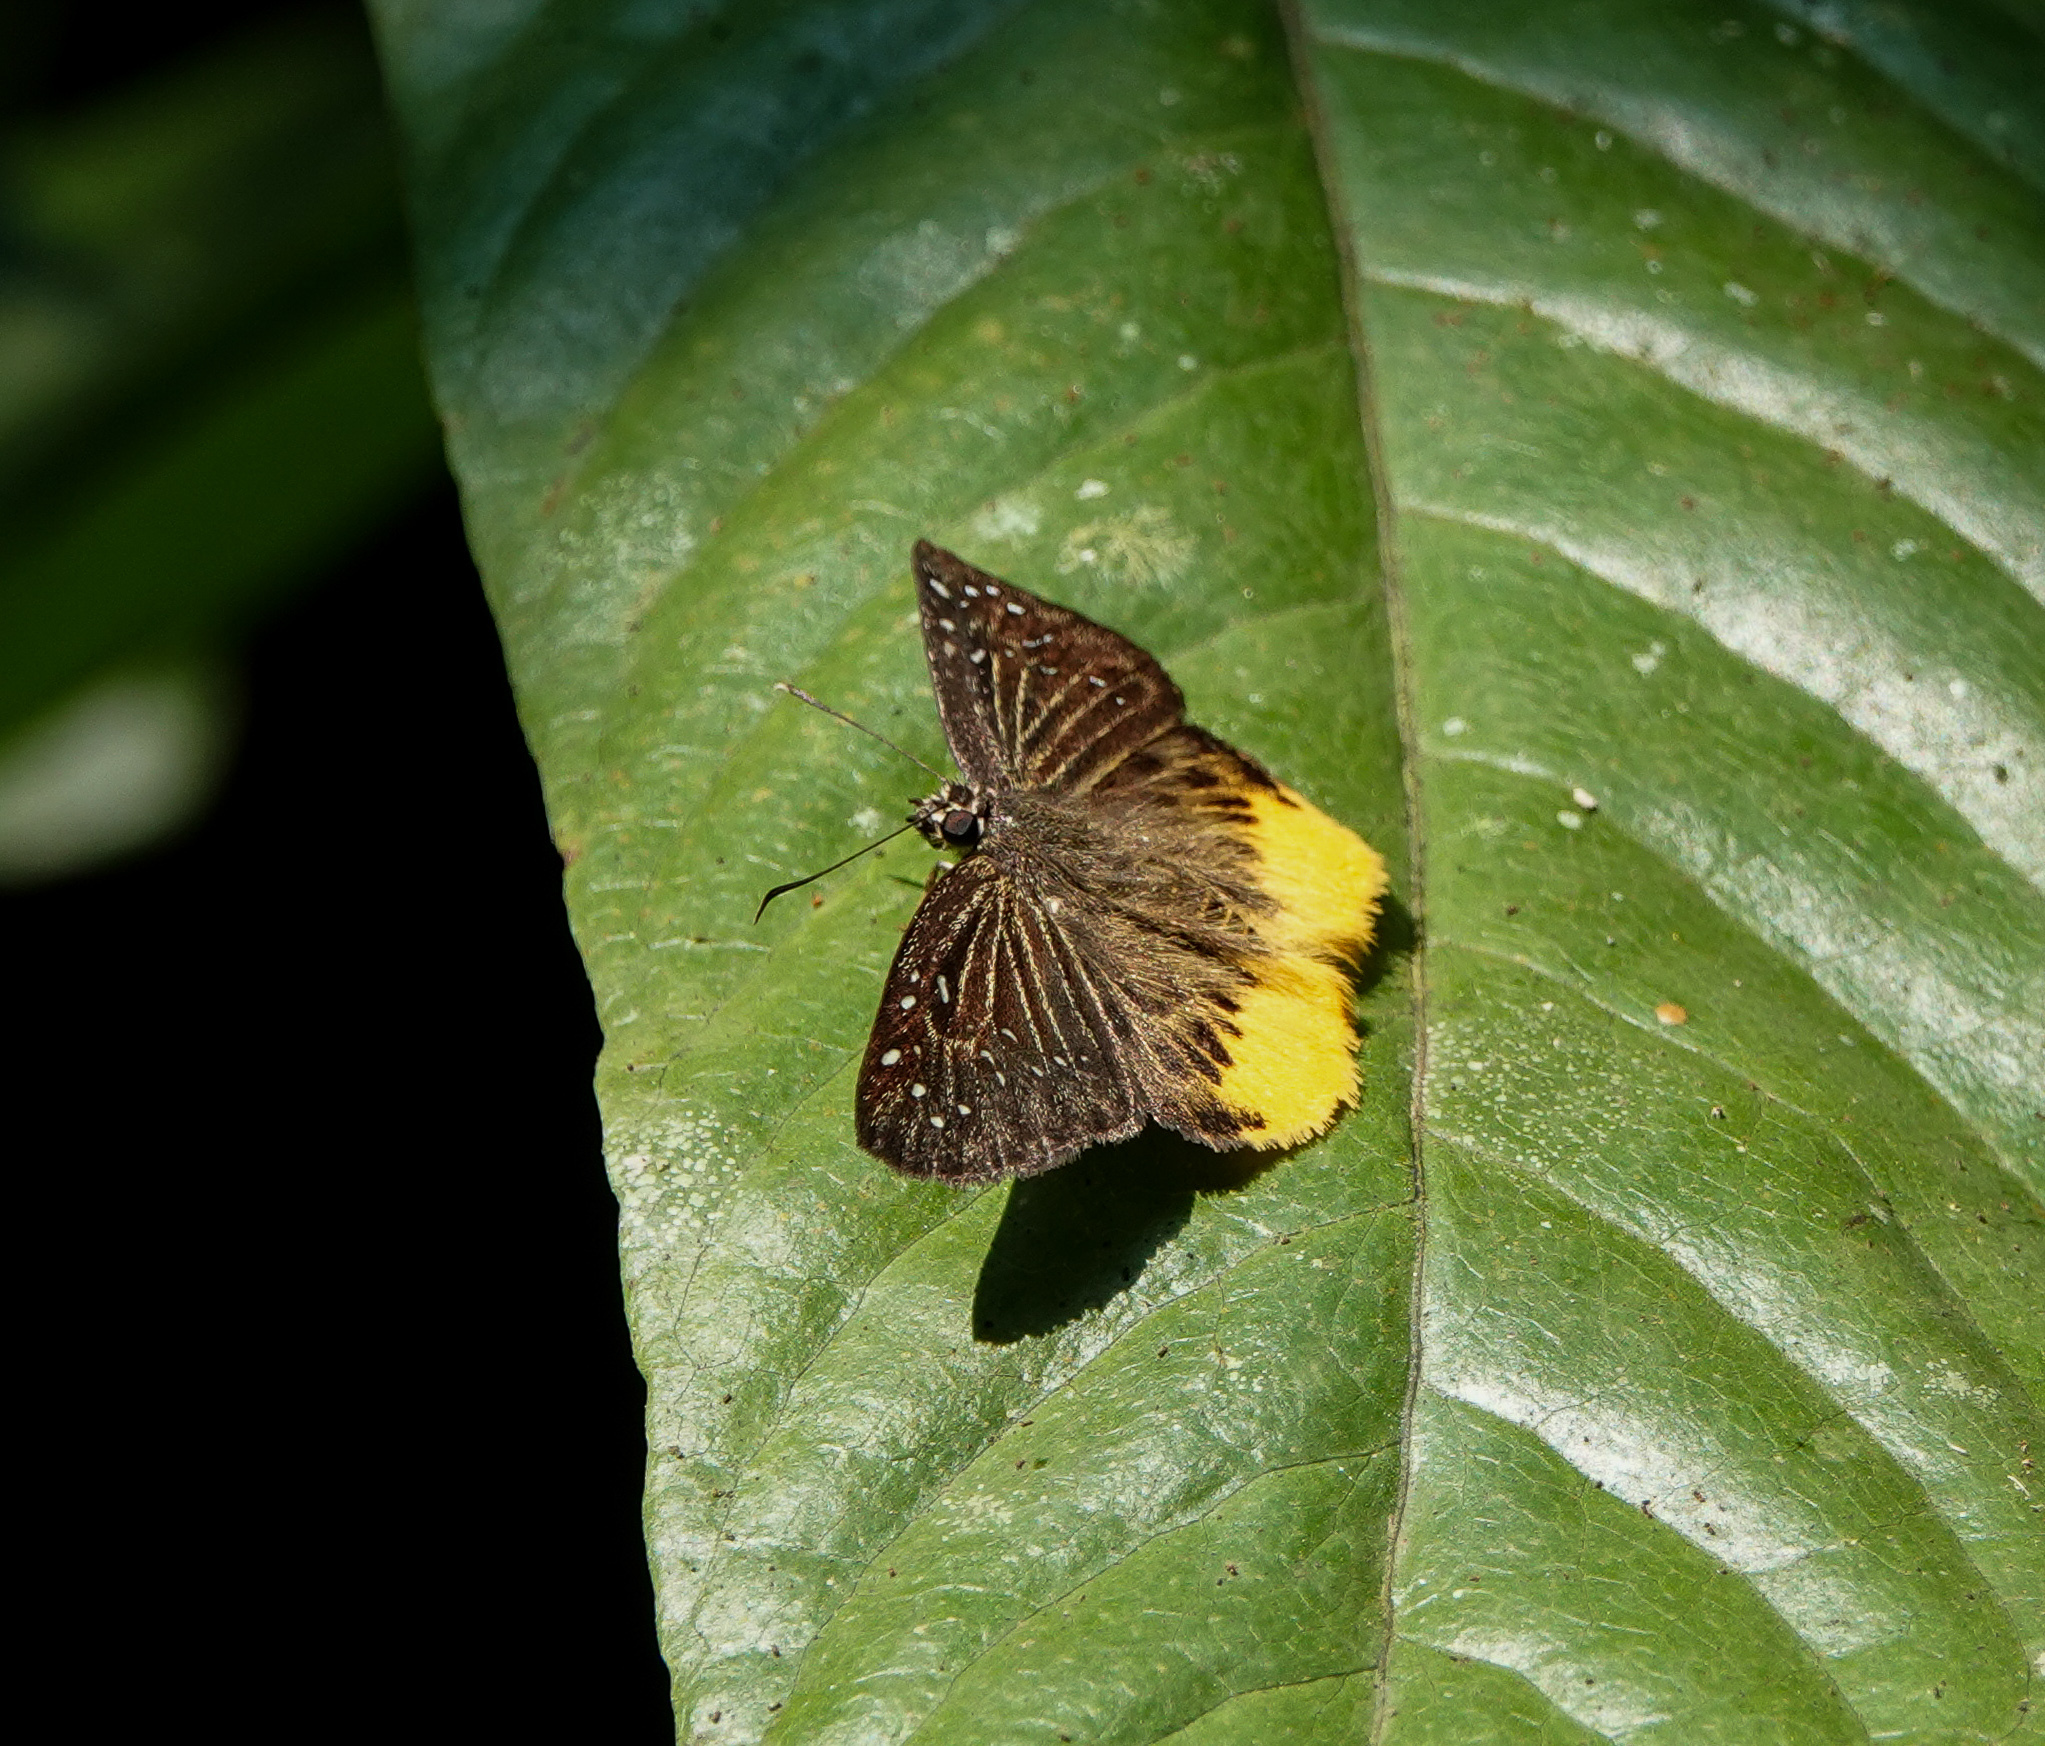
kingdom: Animalia
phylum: Arthropoda
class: Insecta
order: Lepidoptera
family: Hesperiidae
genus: Mooreana
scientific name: Mooreana trichoneura
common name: Yellow flat
